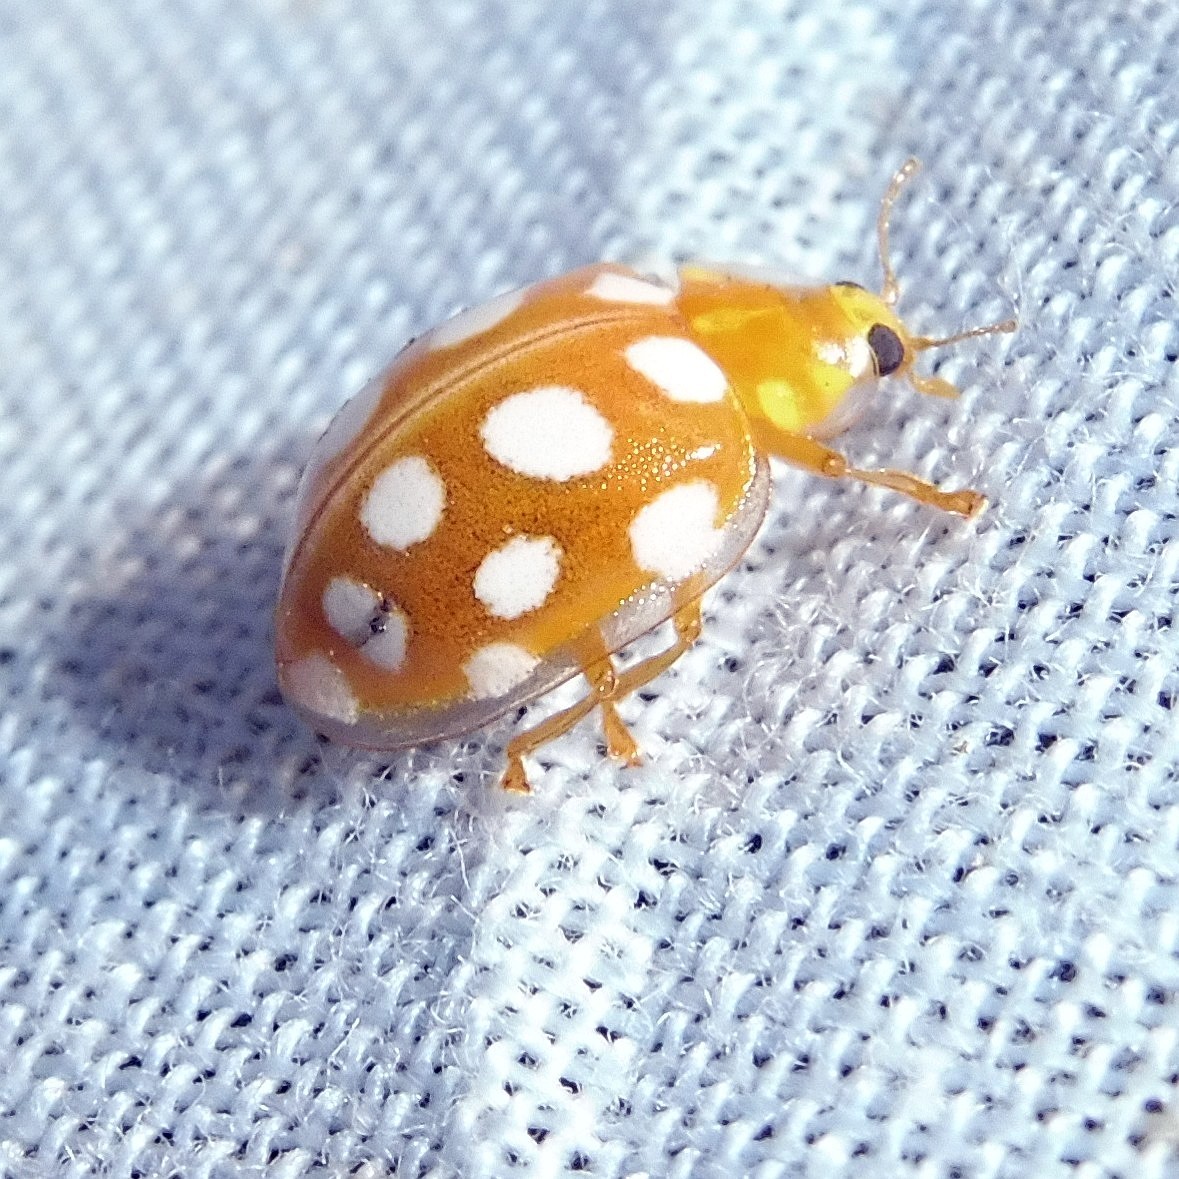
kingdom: Animalia
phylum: Arthropoda
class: Insecta
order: Coleoptera
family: Coccinellidae
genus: Halyzia
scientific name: Halyzia sedecimguttata
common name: Orange ladybird
